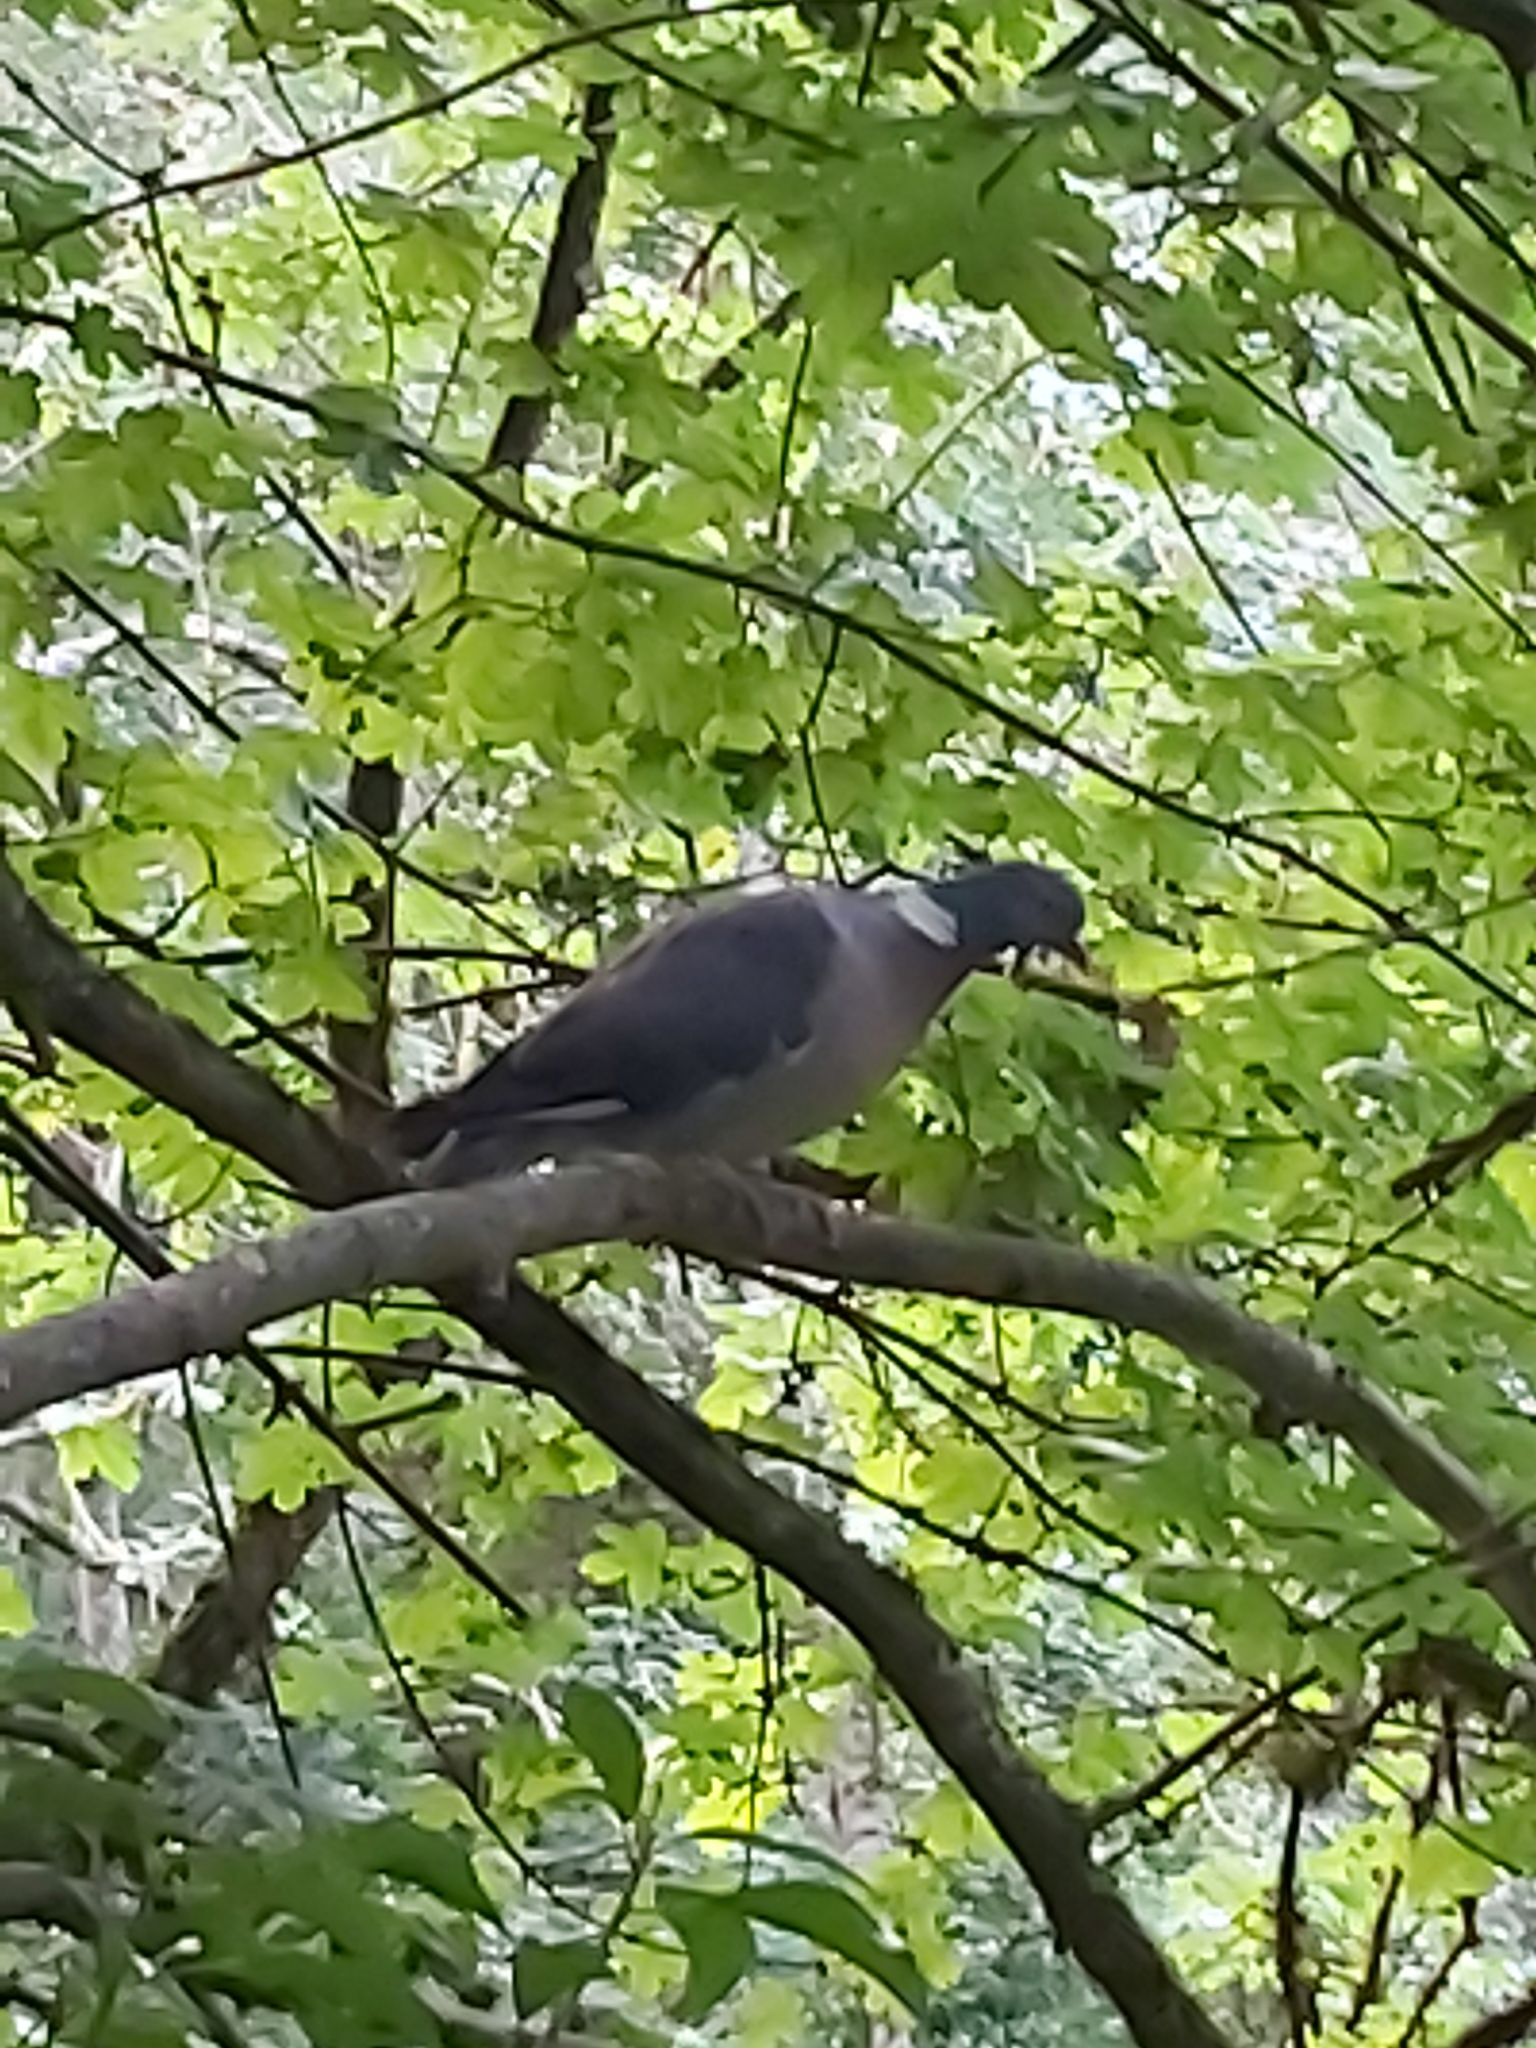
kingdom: Animalia
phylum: Chordata
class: Aves
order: Columbiformes
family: Columbidae
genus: Columba
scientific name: Columba palumbus
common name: Common wood pigeon
